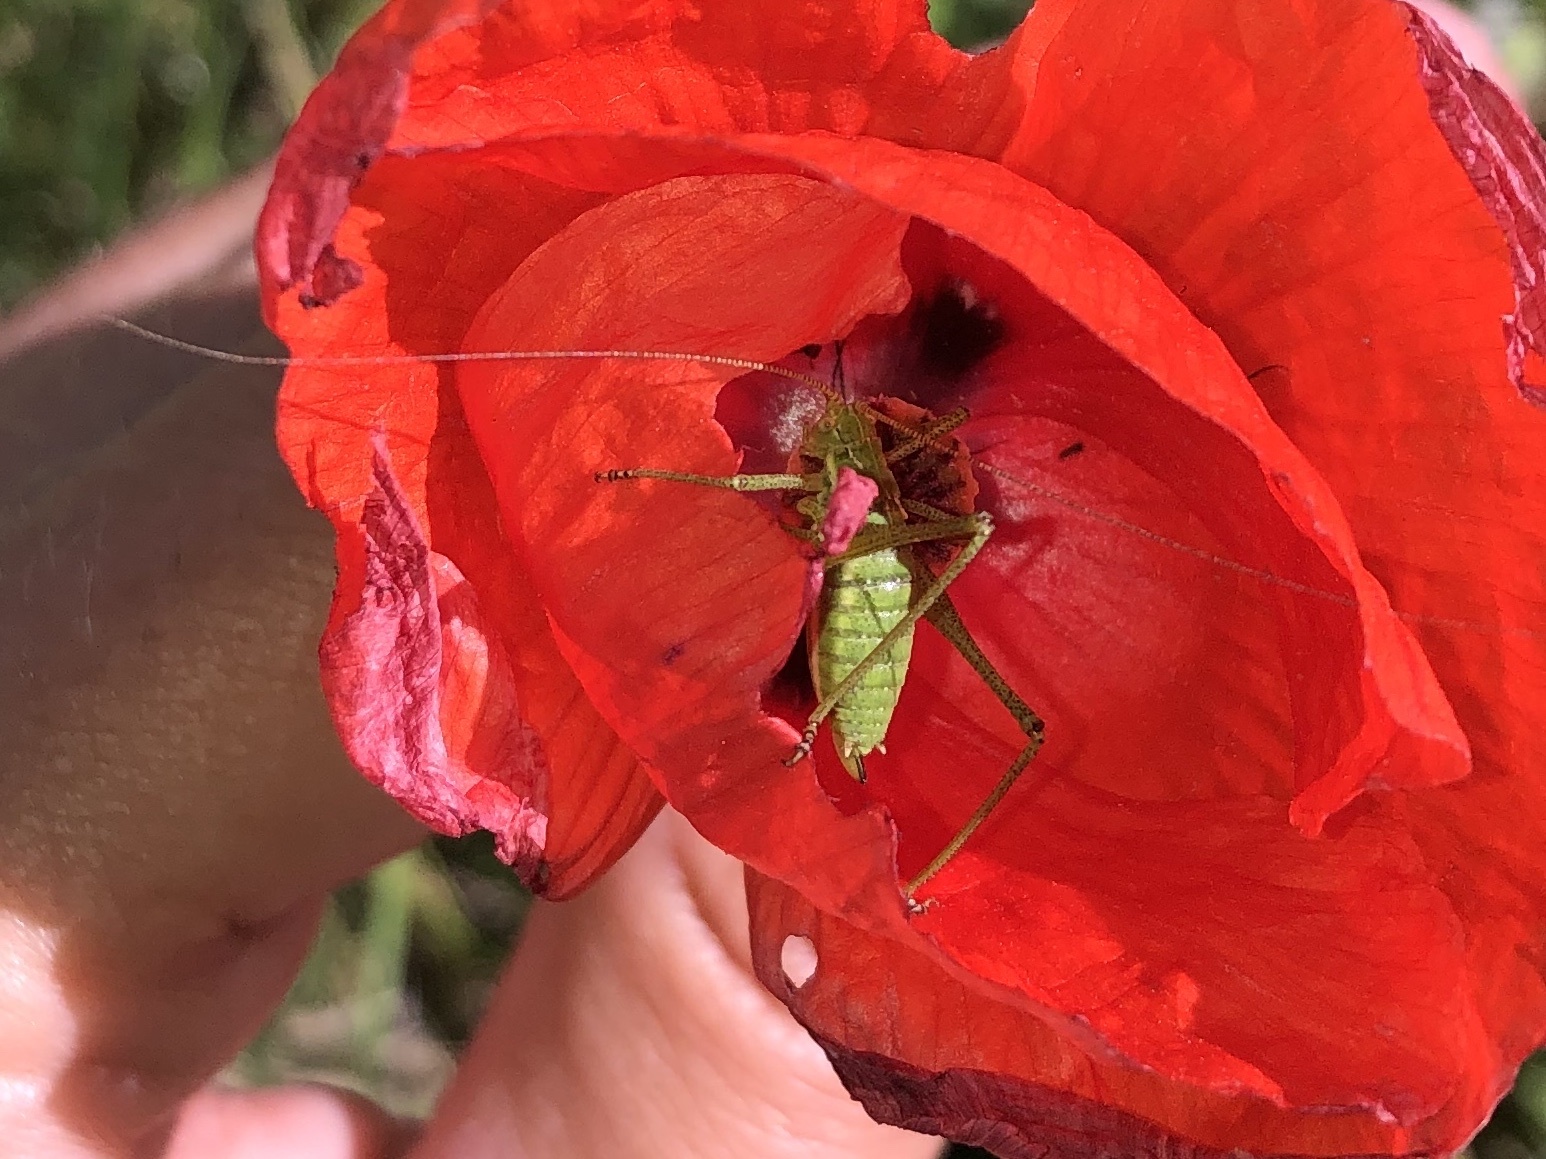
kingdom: Animalia
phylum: Arthropoda
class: Insecta
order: Orthoptera
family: Tettigoniidae
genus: Leptophyes
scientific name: Leptophyes albovittata
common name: Striped bush-cricket
